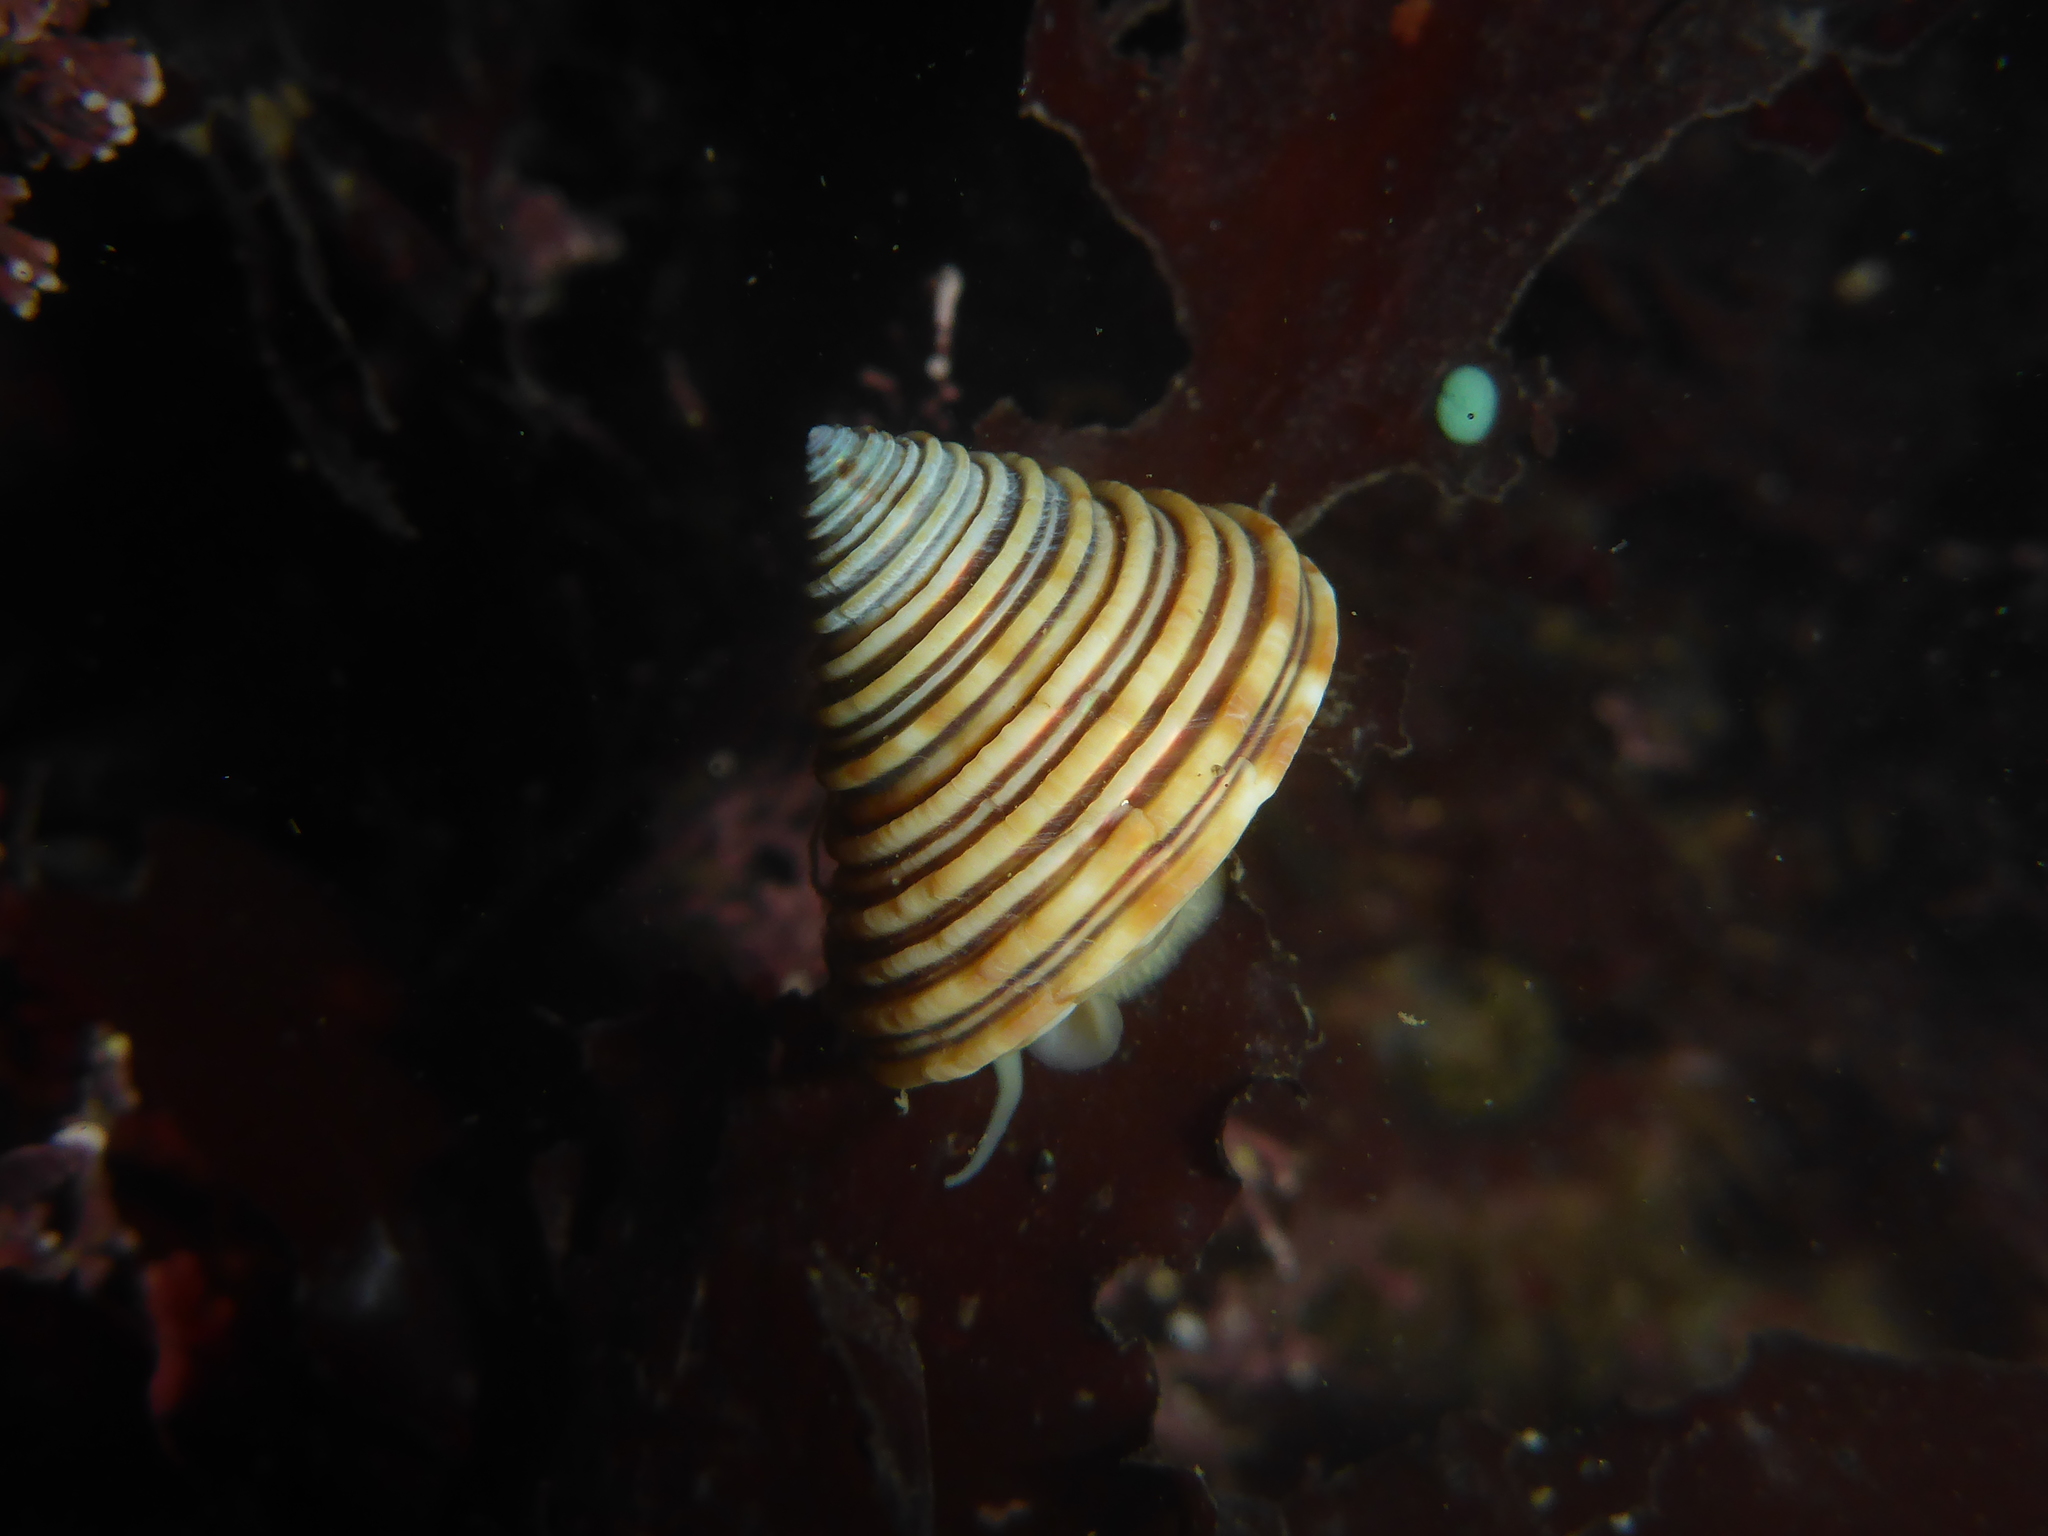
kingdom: Animalia
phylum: Mollusca
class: Gastropoda
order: Trochida
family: Calliostomatidae
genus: Calliostoma
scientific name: Calliostoma canaliculatum
